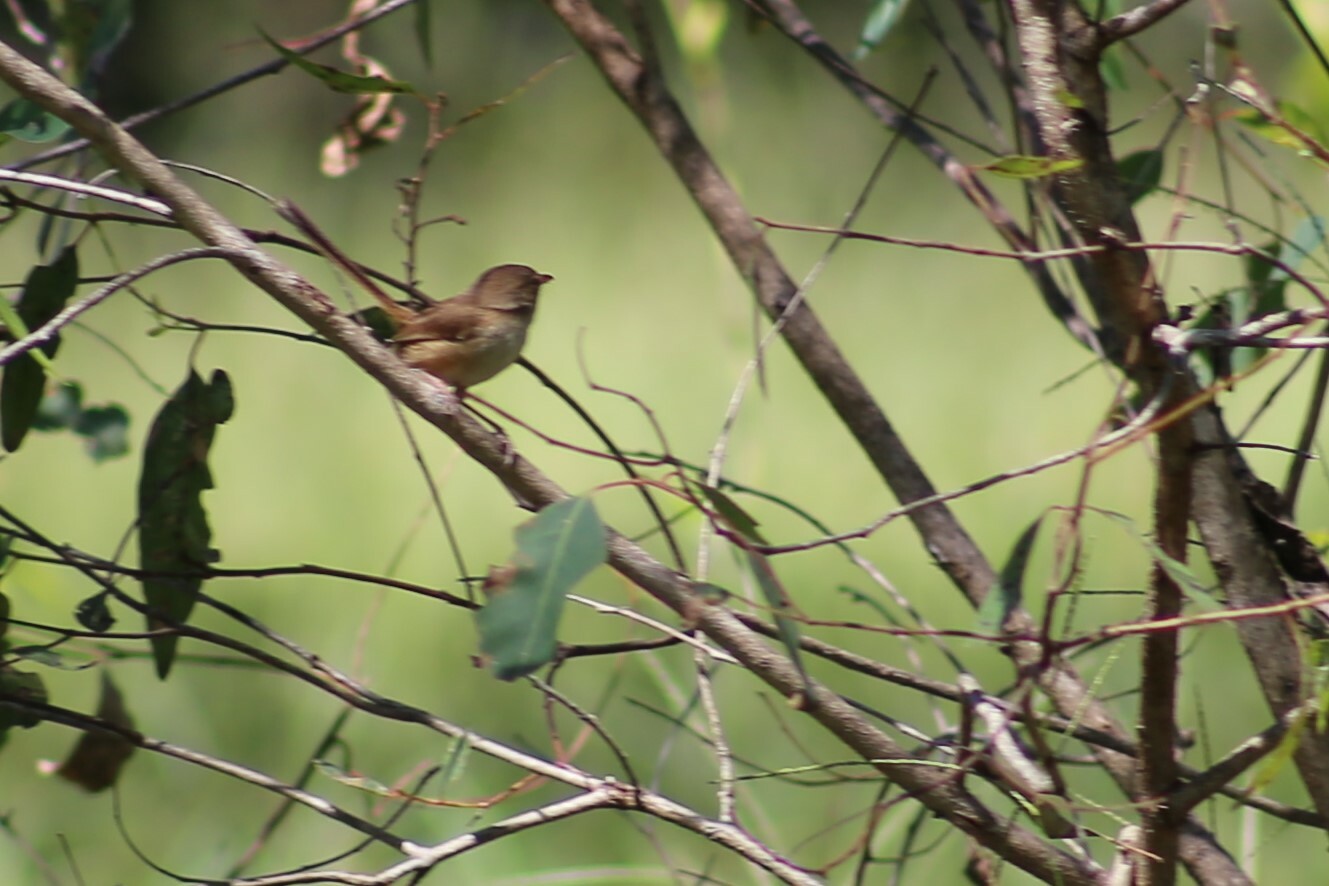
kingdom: Animalia
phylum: Chordata
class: Aves
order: Passeriformes
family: Maluridae
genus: Malurus
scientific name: Malurus melanocephalus
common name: Red-backed fairywren
